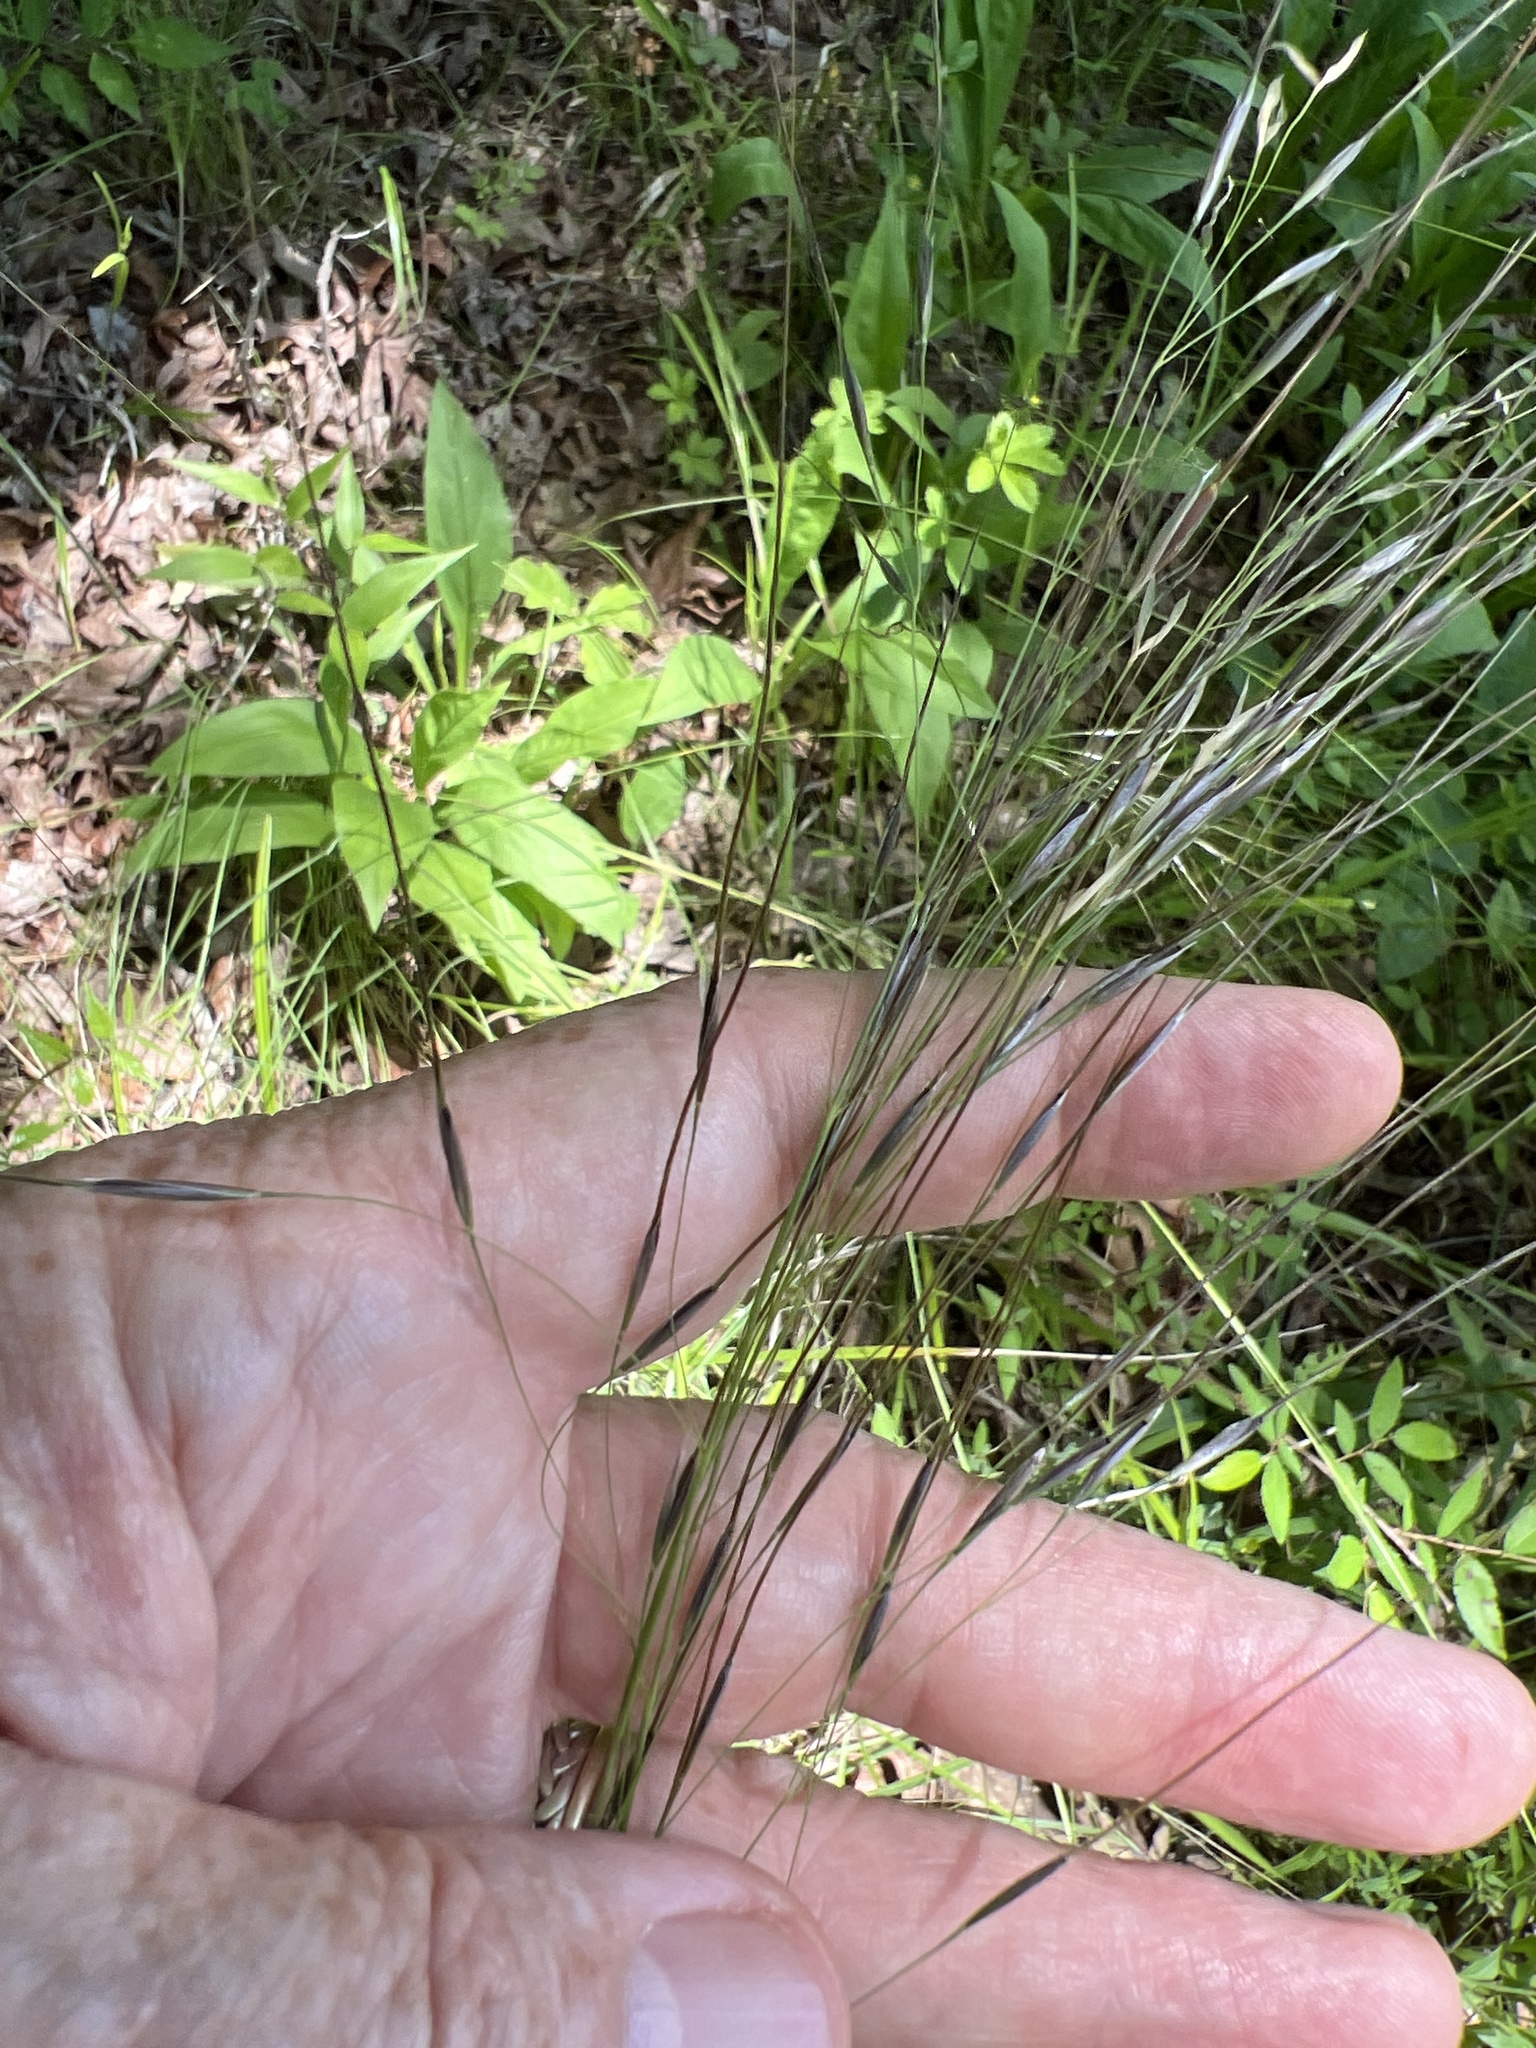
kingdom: Plantae
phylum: Tracheophyta
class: Liliopsida
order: Poales
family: Poaceae
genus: Piptochaetium
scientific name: Piptochaetium avenaceum
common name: Black bunchgrass
